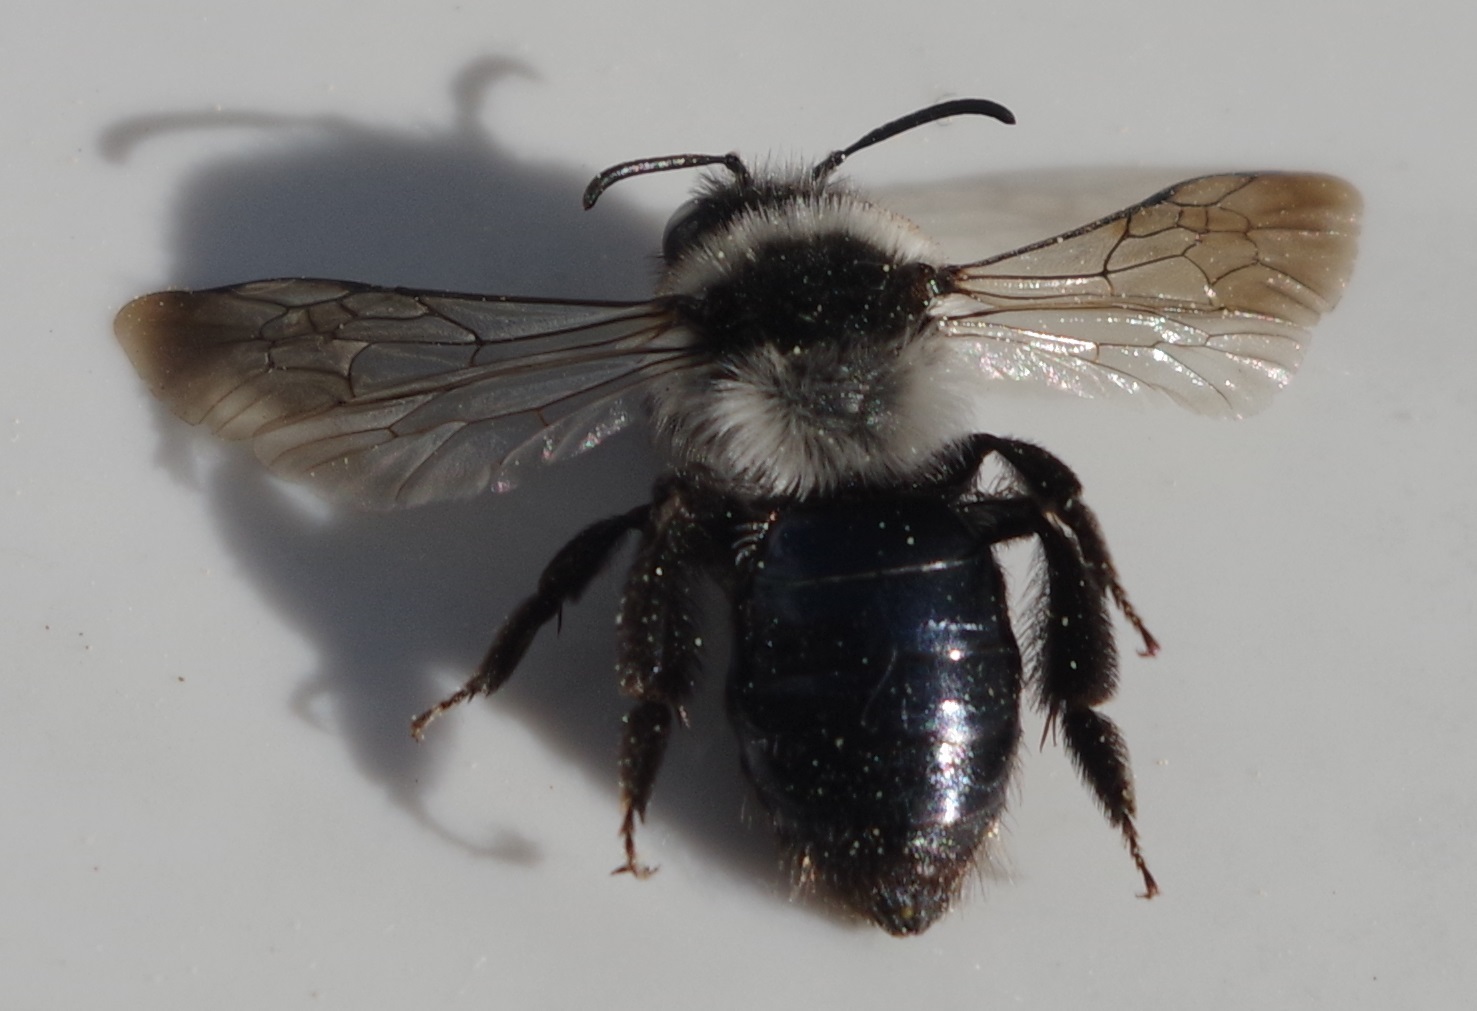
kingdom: Animalia
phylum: Arthropoda
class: Insecta
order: Hymenoptera
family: Andrenidae
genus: Andrena
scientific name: Andrena cineraria
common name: Ashy mining bee
